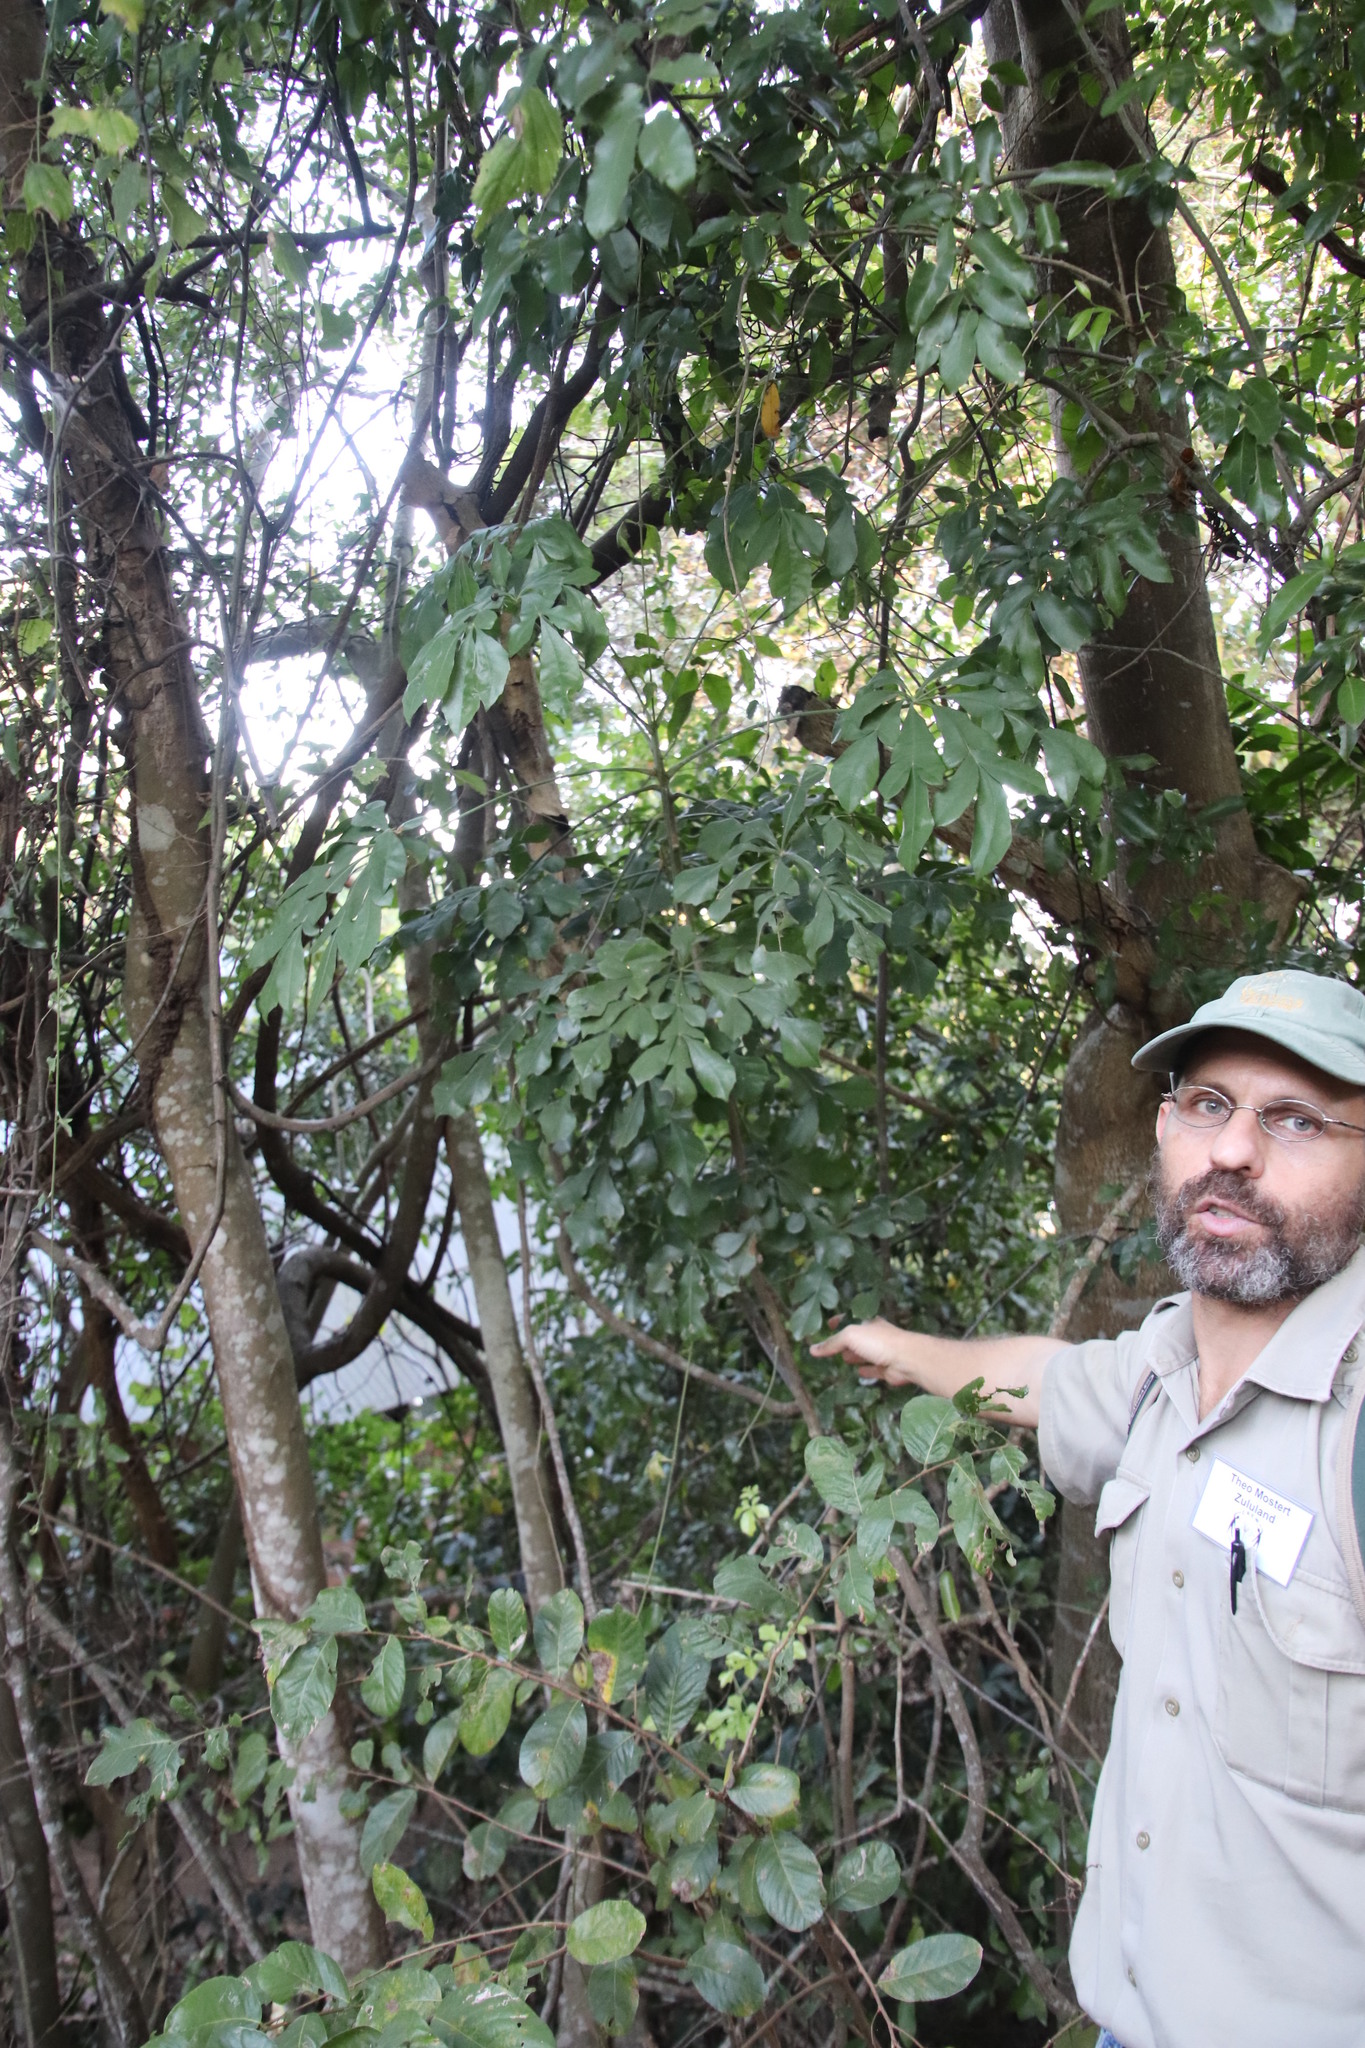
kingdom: Plantae
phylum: Tracheophyta
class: Magnoliopsida
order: Apiales
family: Araliaceae
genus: Cussonia
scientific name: Cussonia zuluensis
